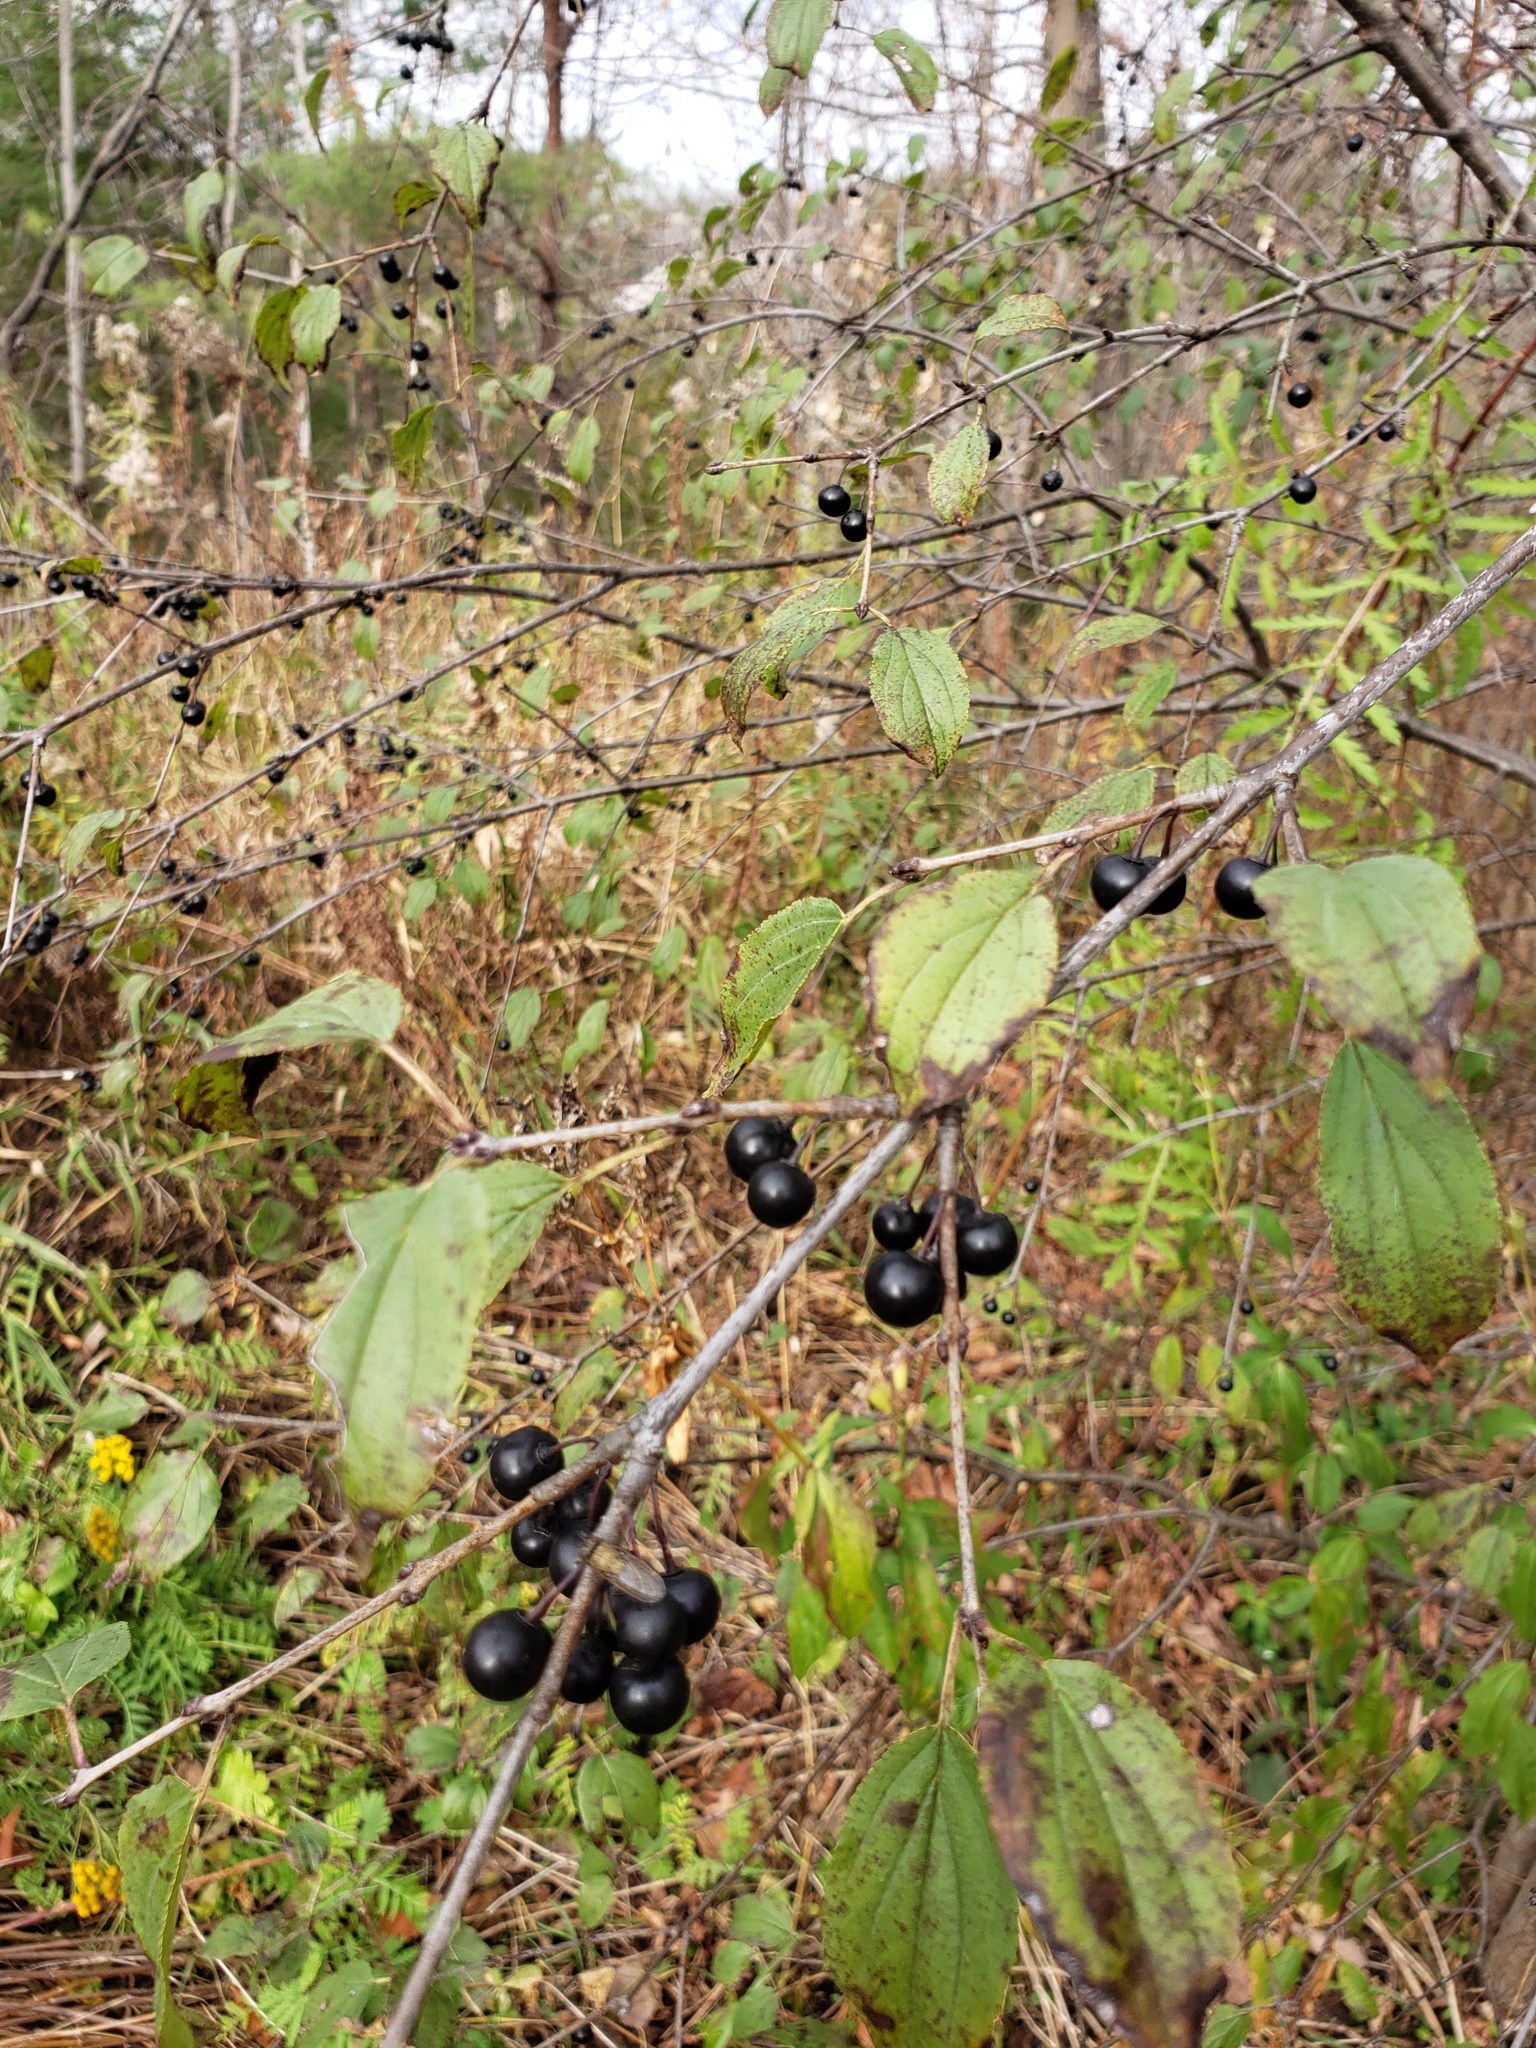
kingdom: Plantae
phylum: Tracheophyta
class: Magnoliopsida
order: Rosales
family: Rhamnaceae
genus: Rhamnus
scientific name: Rhamnus cathartica
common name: Common buckthorn
